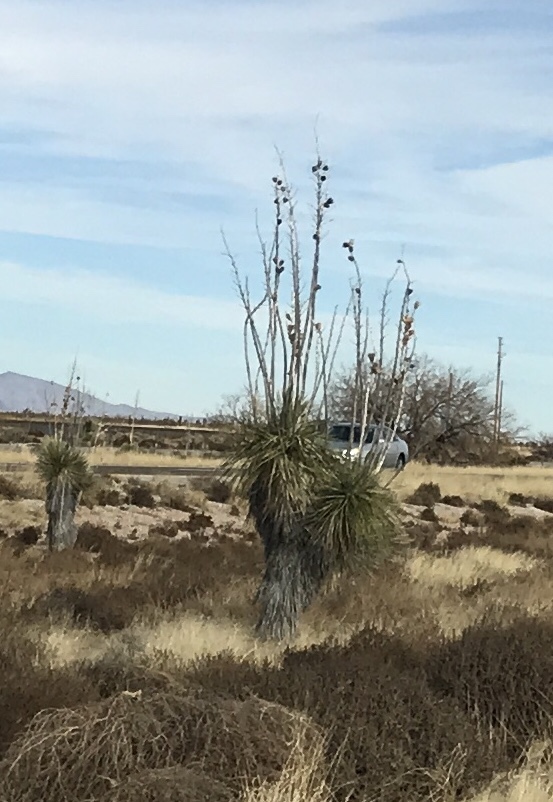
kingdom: Plantae
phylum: Tracheophyta
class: Liliopsida
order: Asparagales
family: Asparagaceae
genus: Yucca
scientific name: Yucca elata
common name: Palmella
